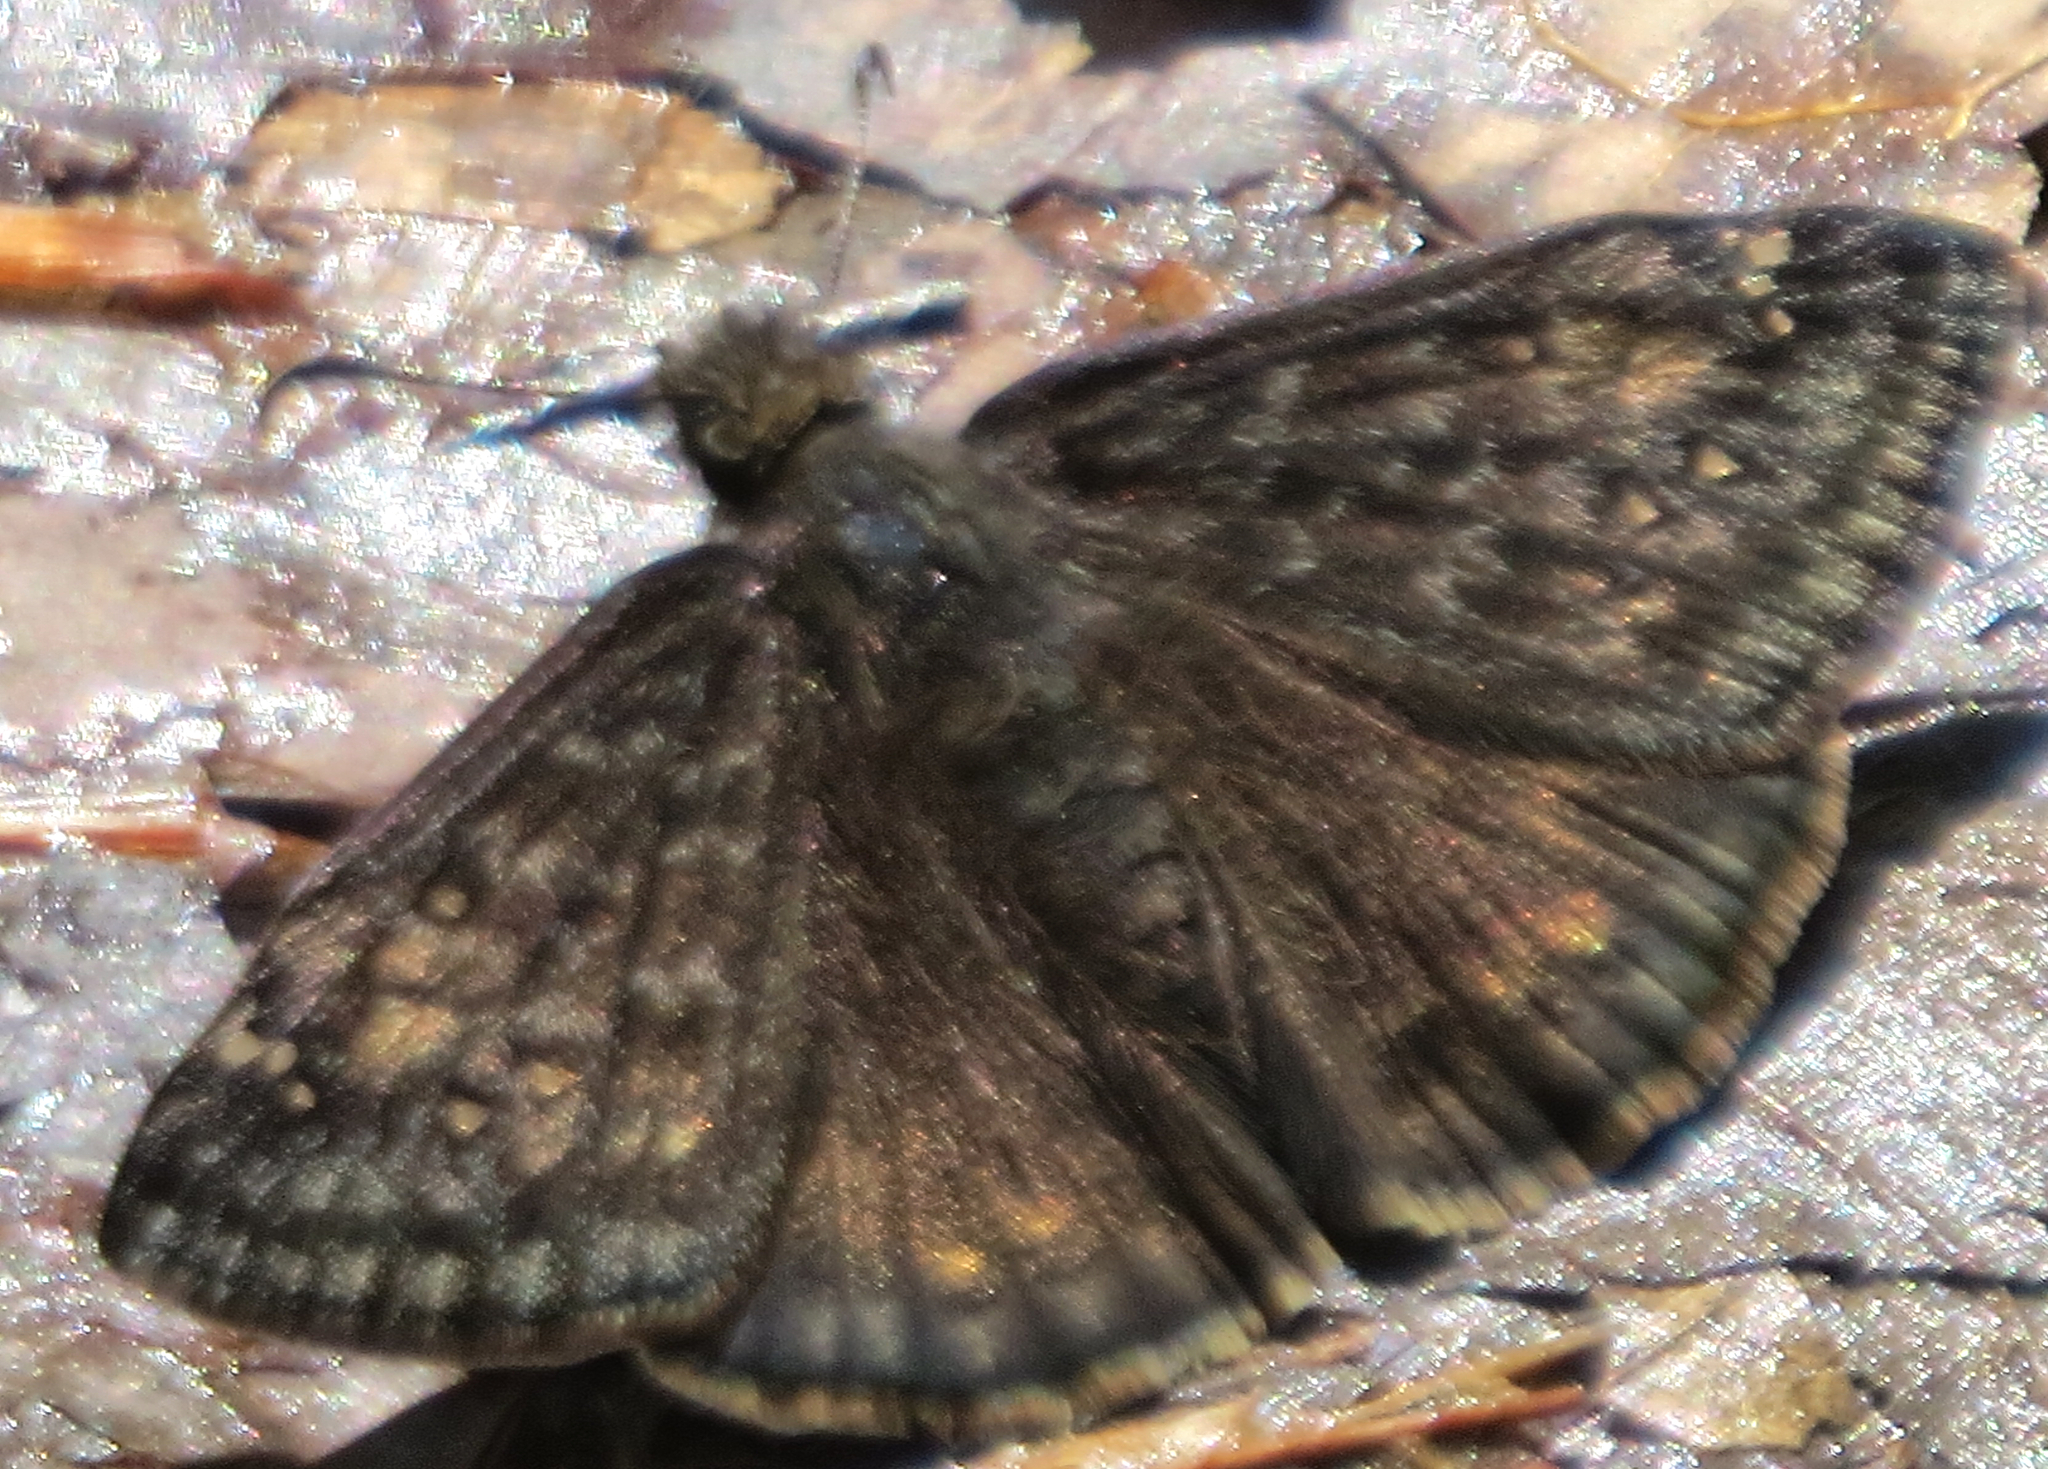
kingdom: Animalia
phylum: Arthropoda
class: Insecta
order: Lepidoptera
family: Hesperiidae
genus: Erynnis
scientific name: Erynnis juvenalis
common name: Juvenal's duskywing
